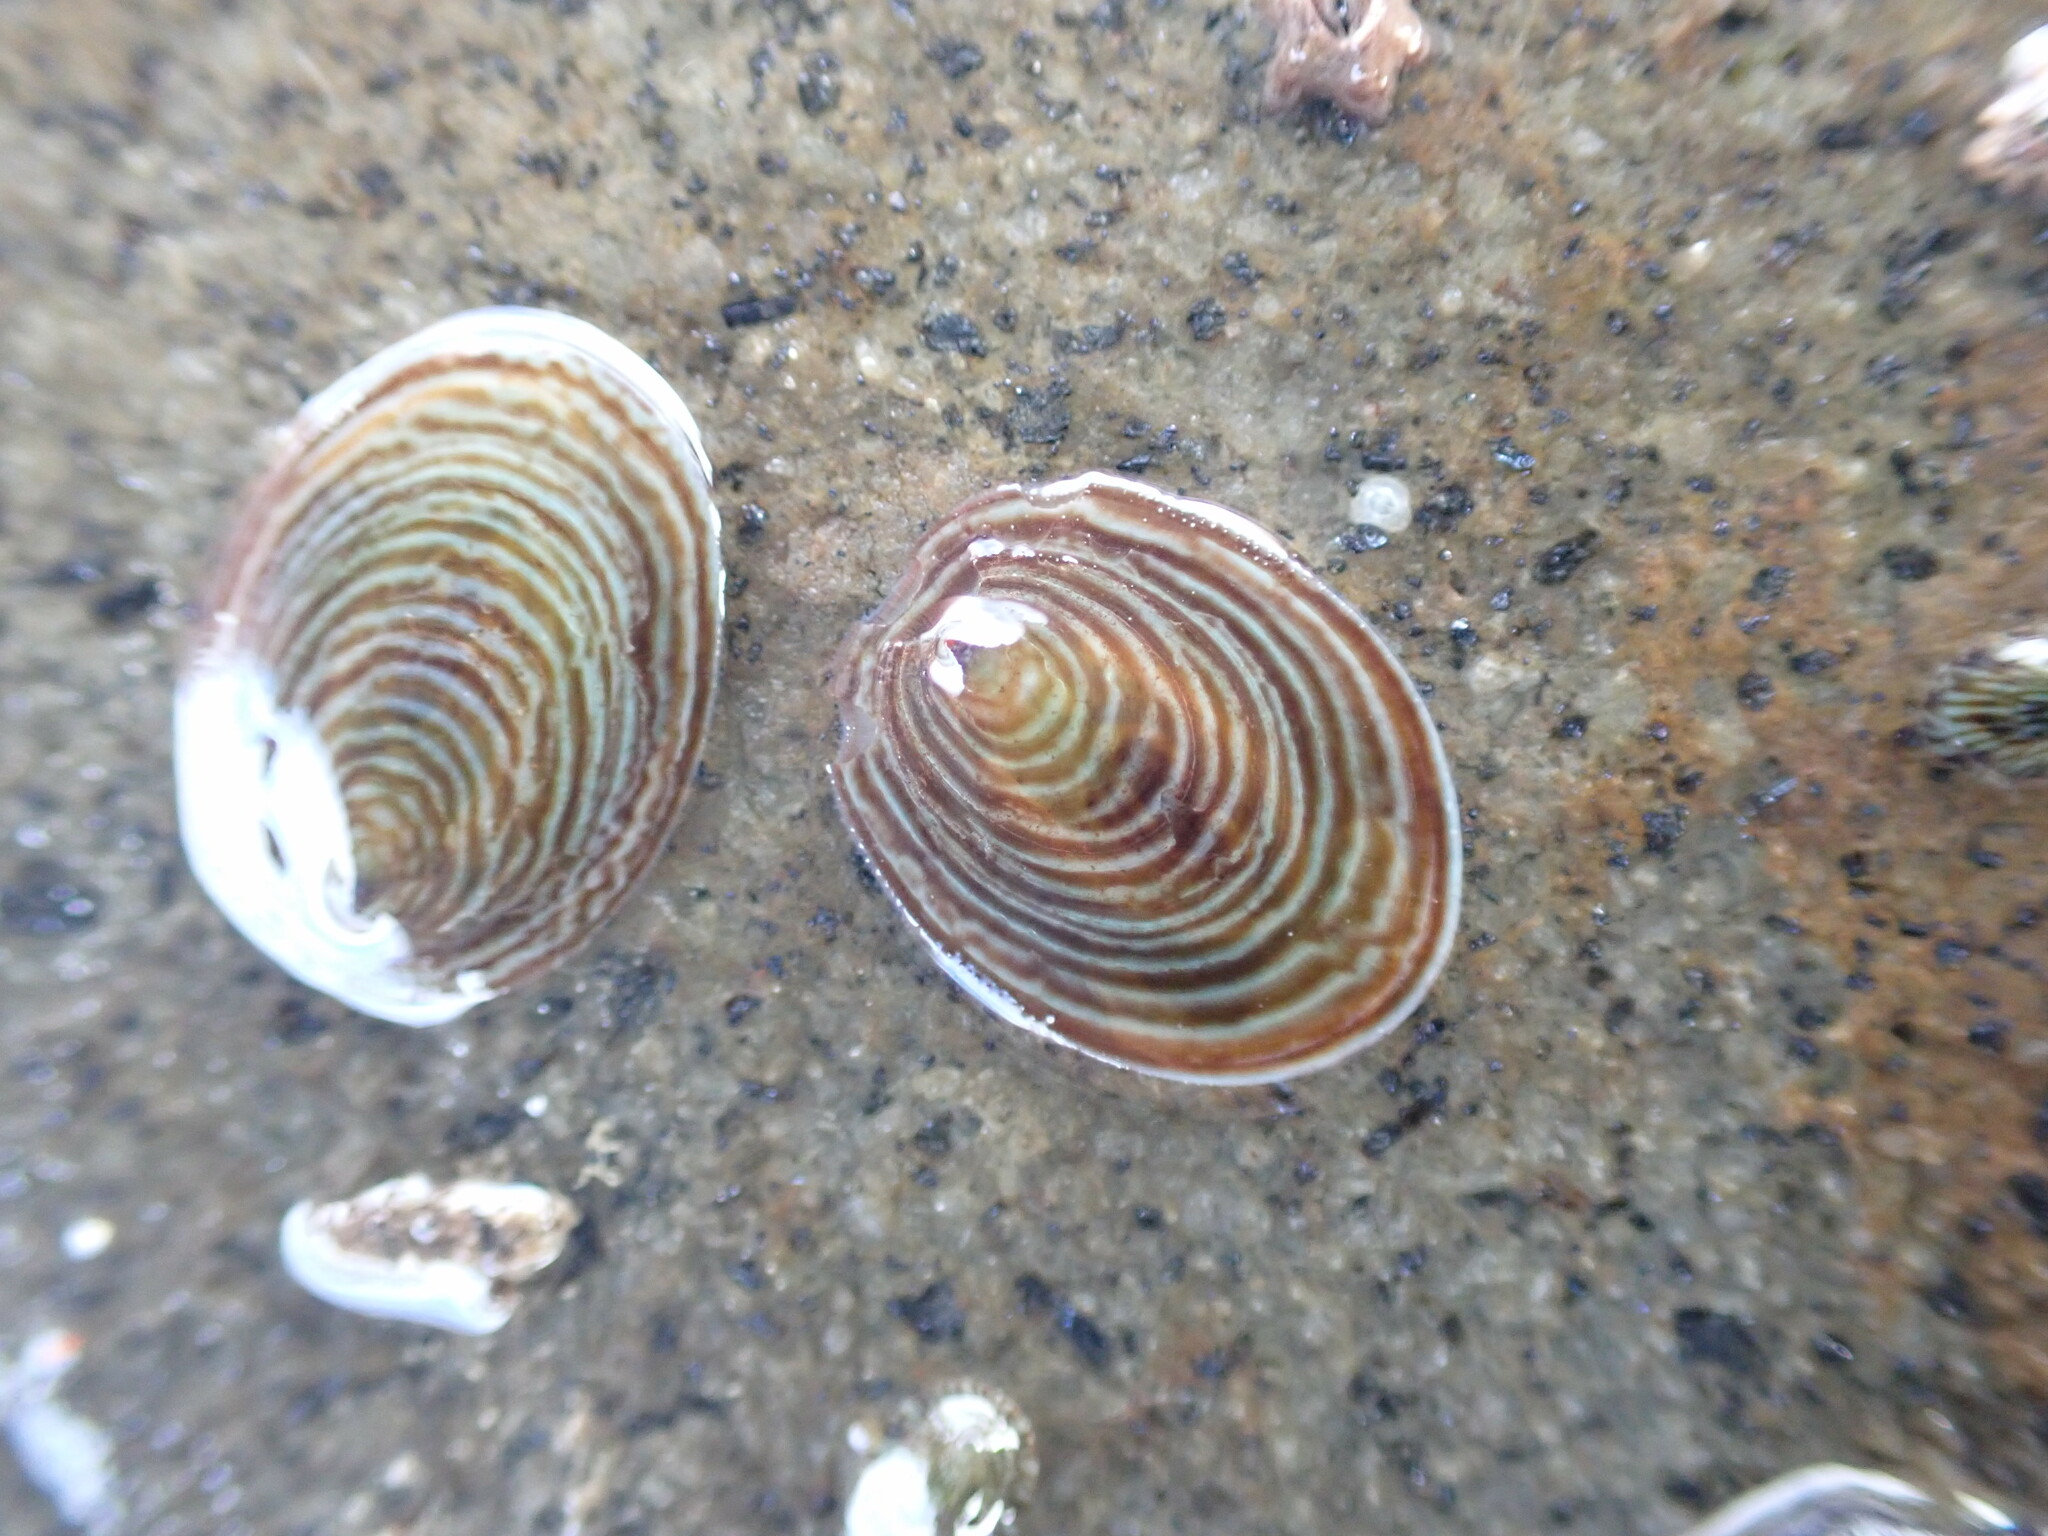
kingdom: Animalia
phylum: Mollusca
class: Gastropoda
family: Lottiidae
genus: Atalacmea
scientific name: Atalacmea fragilis
